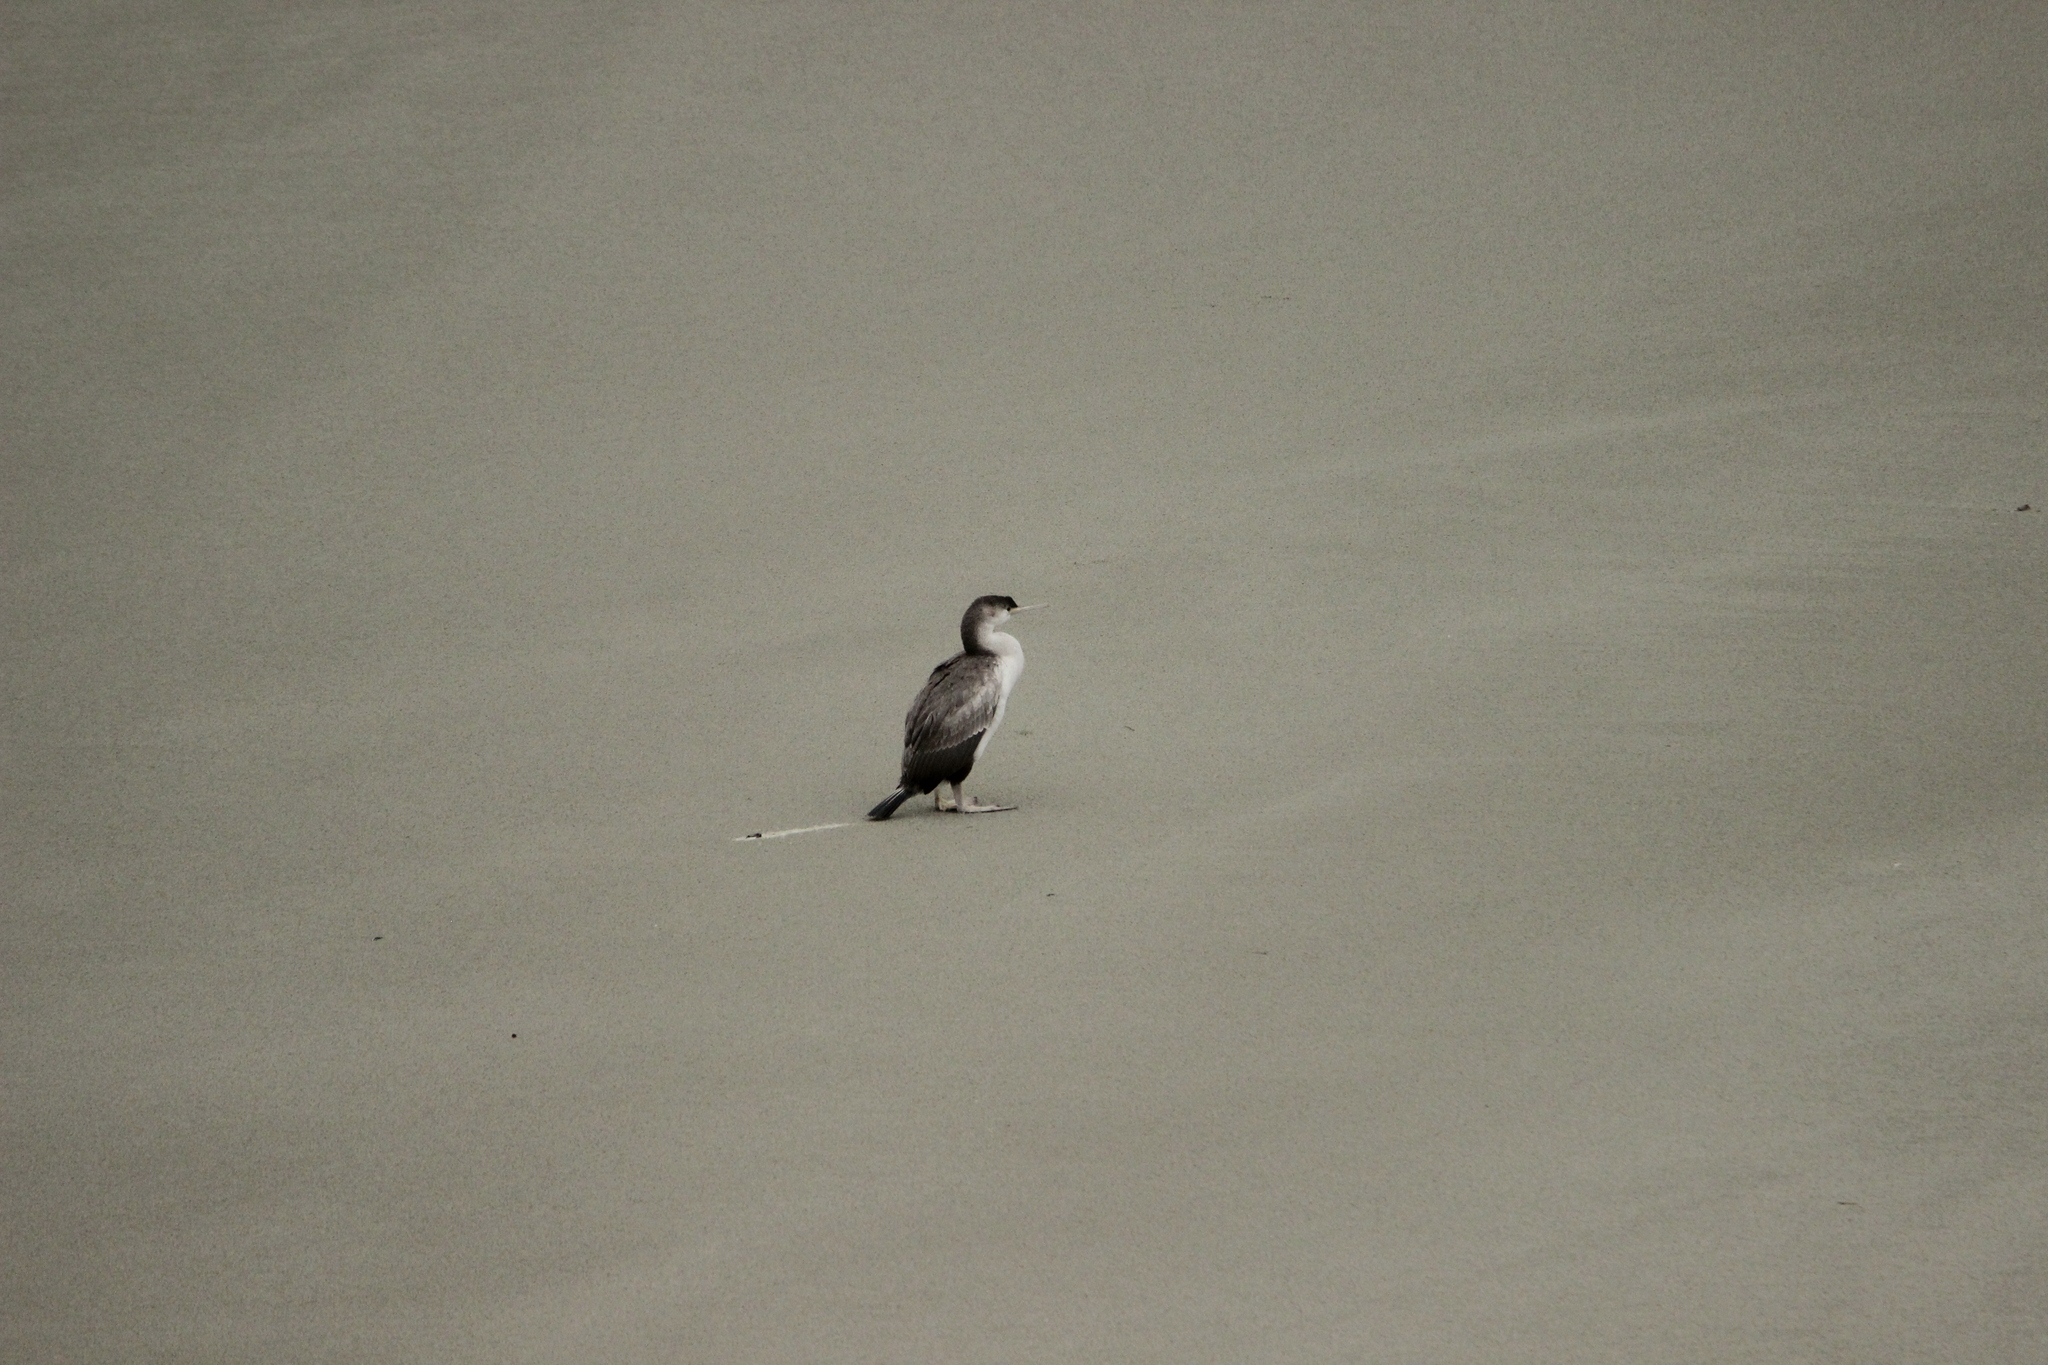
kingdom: Animalia
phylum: Chordata
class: Aves
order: Suliformes
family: Phalacrocoracidae
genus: Phalacrocorax
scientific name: Phalacrocorax punctatus
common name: Spotted shag
